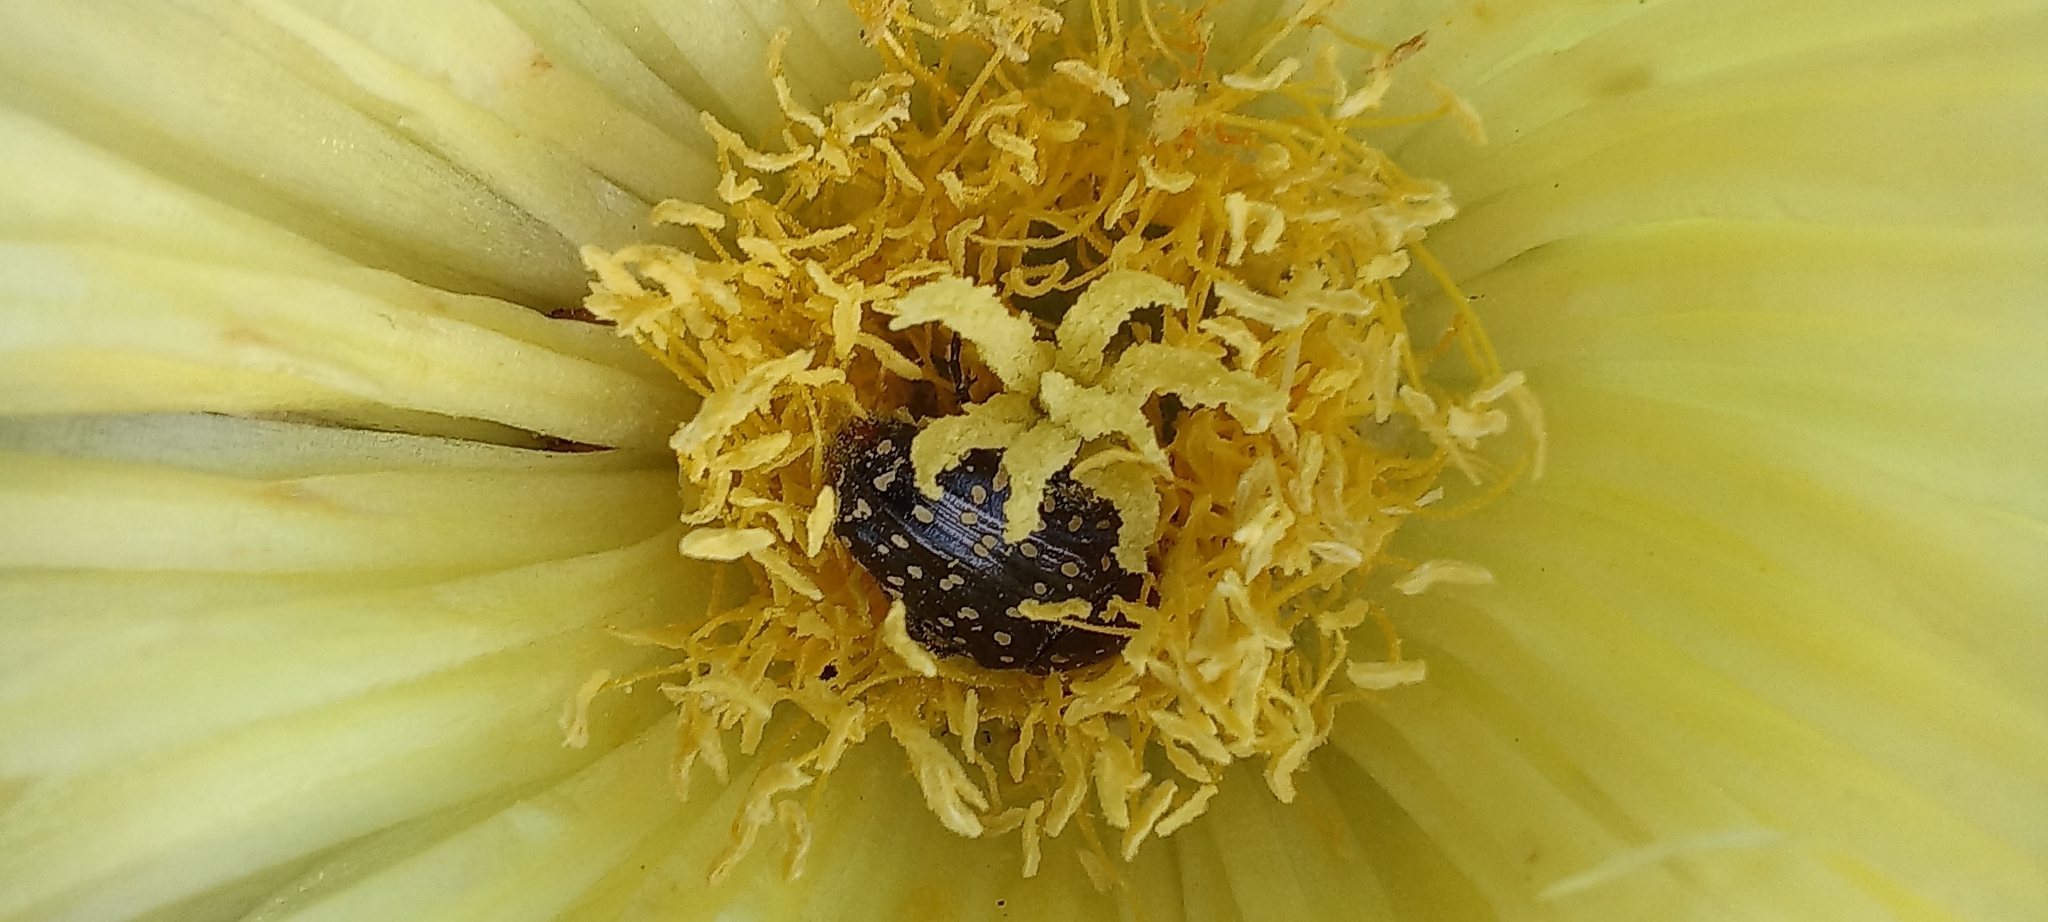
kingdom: Animalia
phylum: Arthropoda
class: Insecta
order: Coleoptera
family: Scarabaeidae
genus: Oxythyrea
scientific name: Oxythyrea
